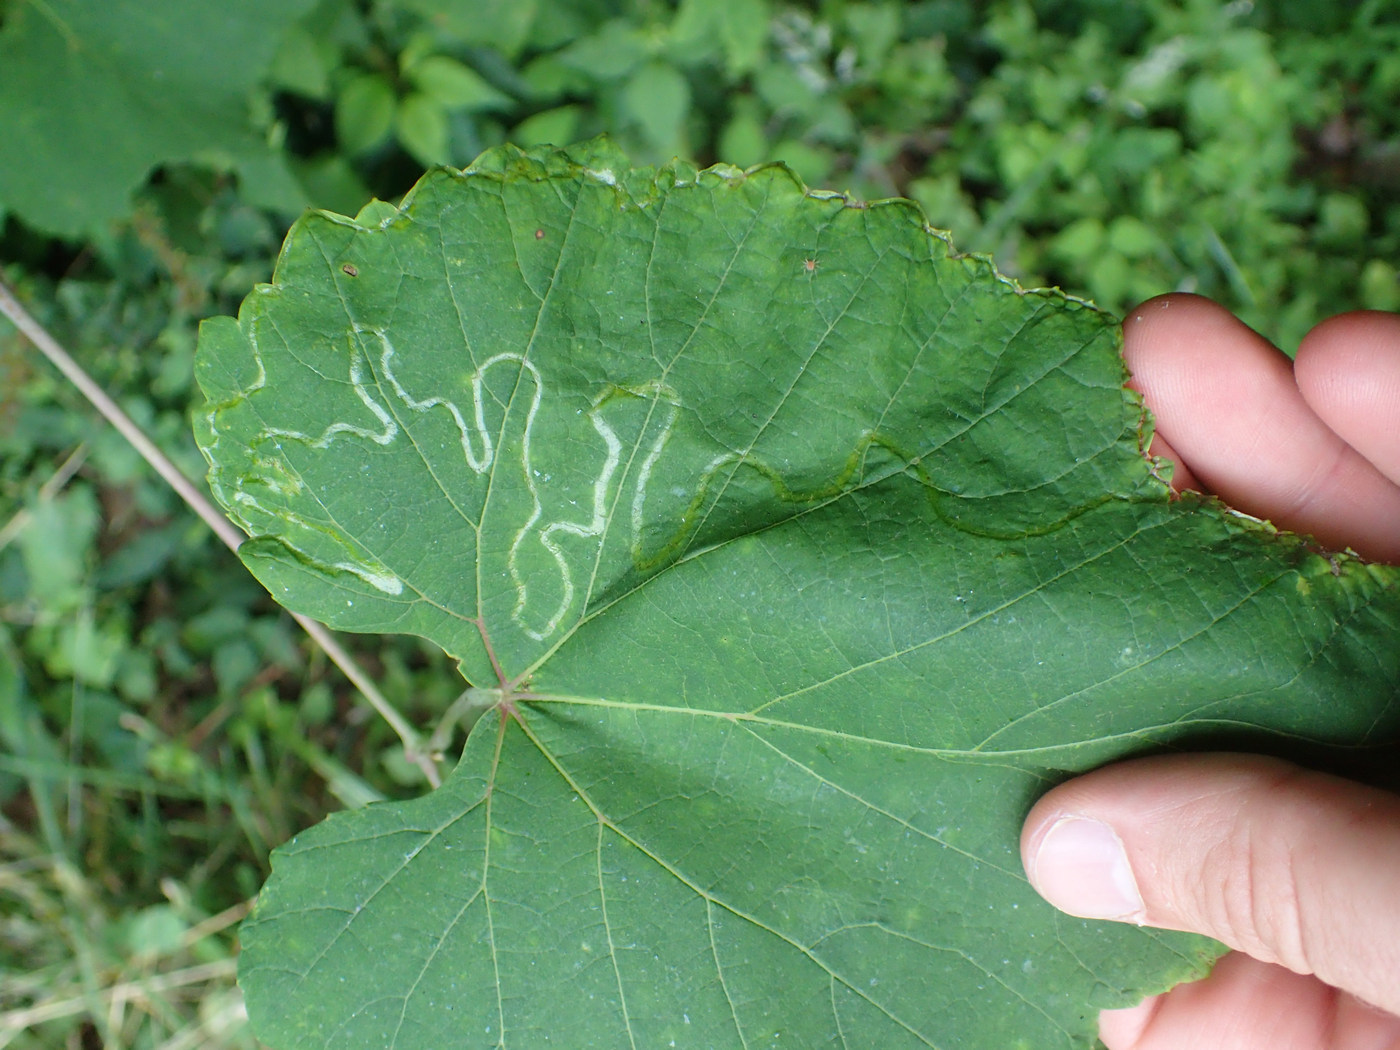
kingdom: Animalia
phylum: Arthropoda
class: Insecta
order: Lepidoptera
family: Gracillariidae
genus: Phyllocnistis
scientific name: Phyllocnistis vitegenella
